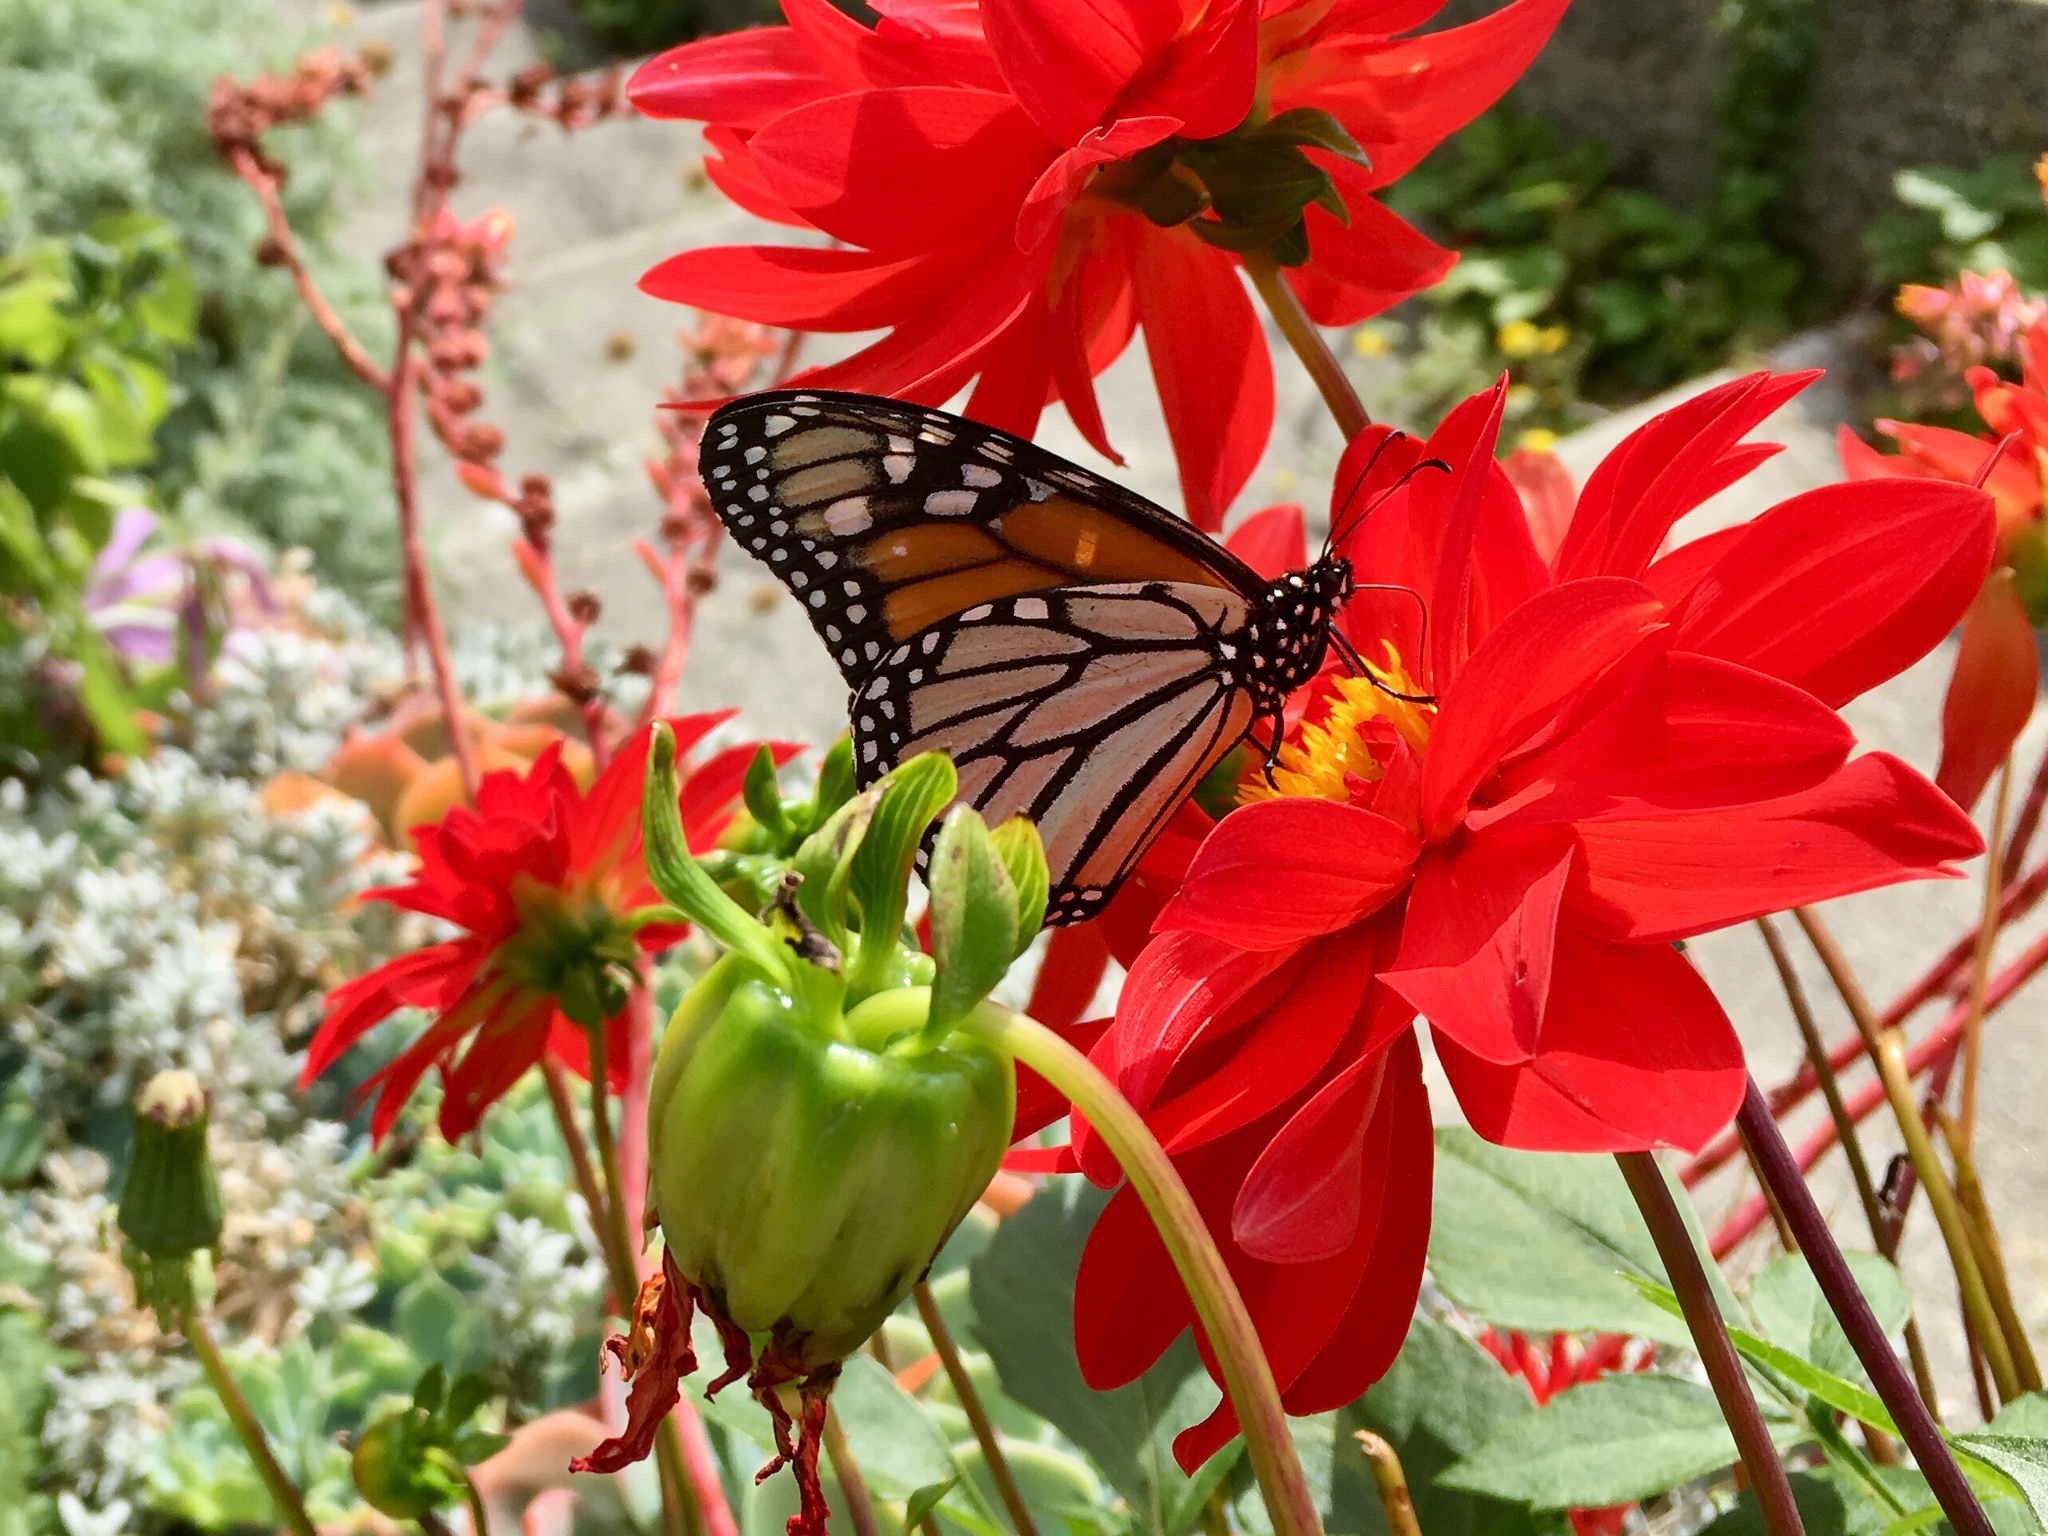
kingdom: Animalia
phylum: Arthropoda
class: Insecta
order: Lepidoptera
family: Nymphalidae
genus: Danaus
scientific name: Danaus plexippus
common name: Monarch
